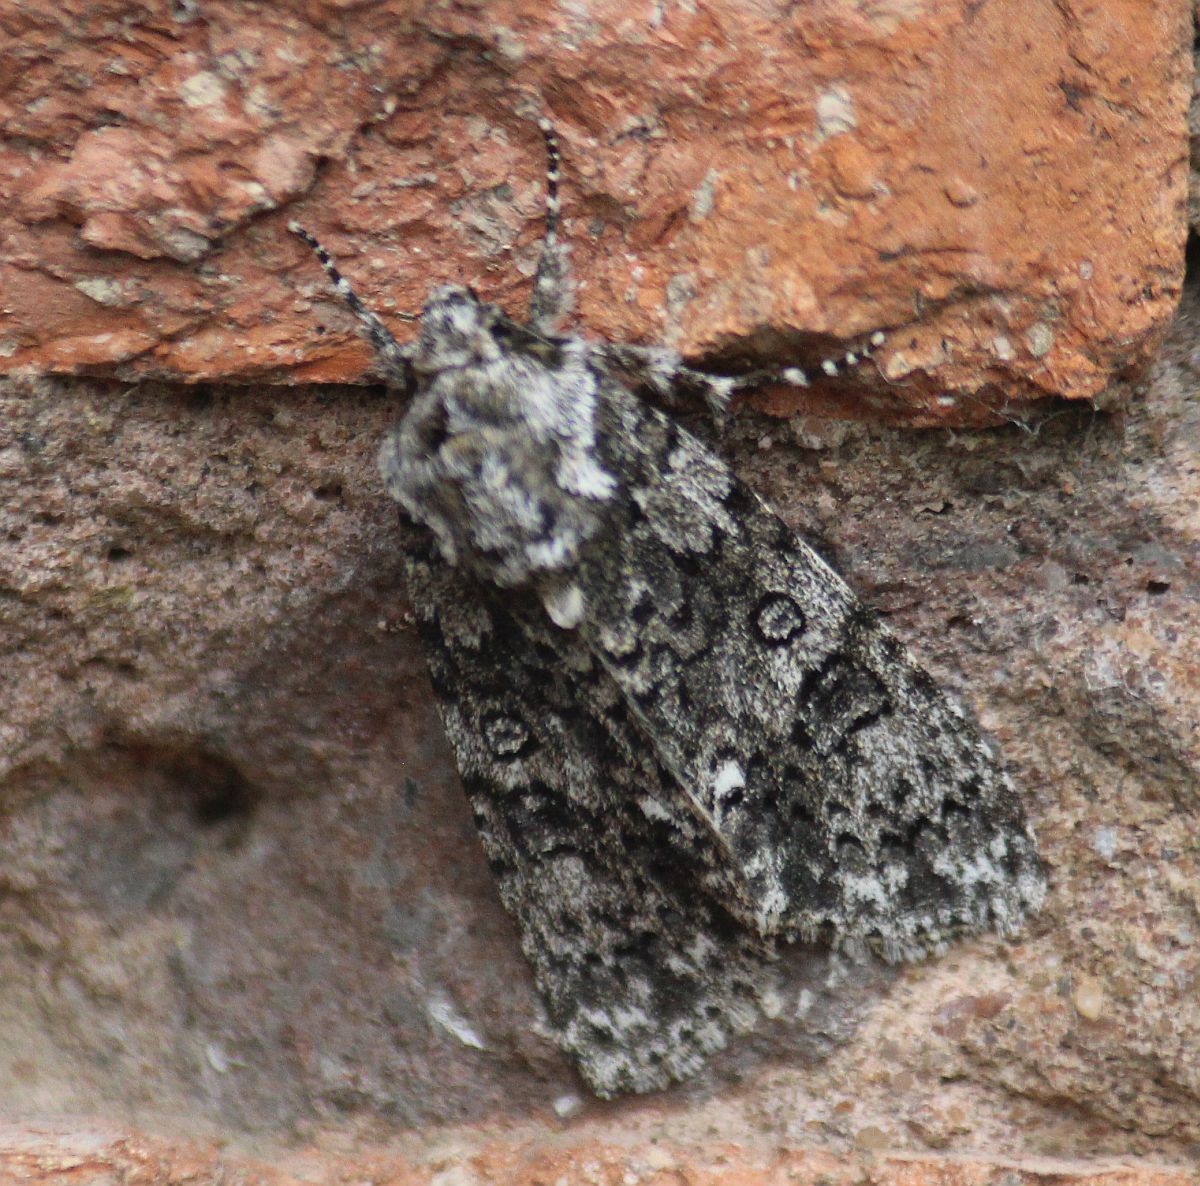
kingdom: Animalia
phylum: Arthropoda
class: Insecta
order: Lepidoptera
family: Noctuidae
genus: Acronicta
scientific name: Acronicta rumicis
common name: Knot grass
